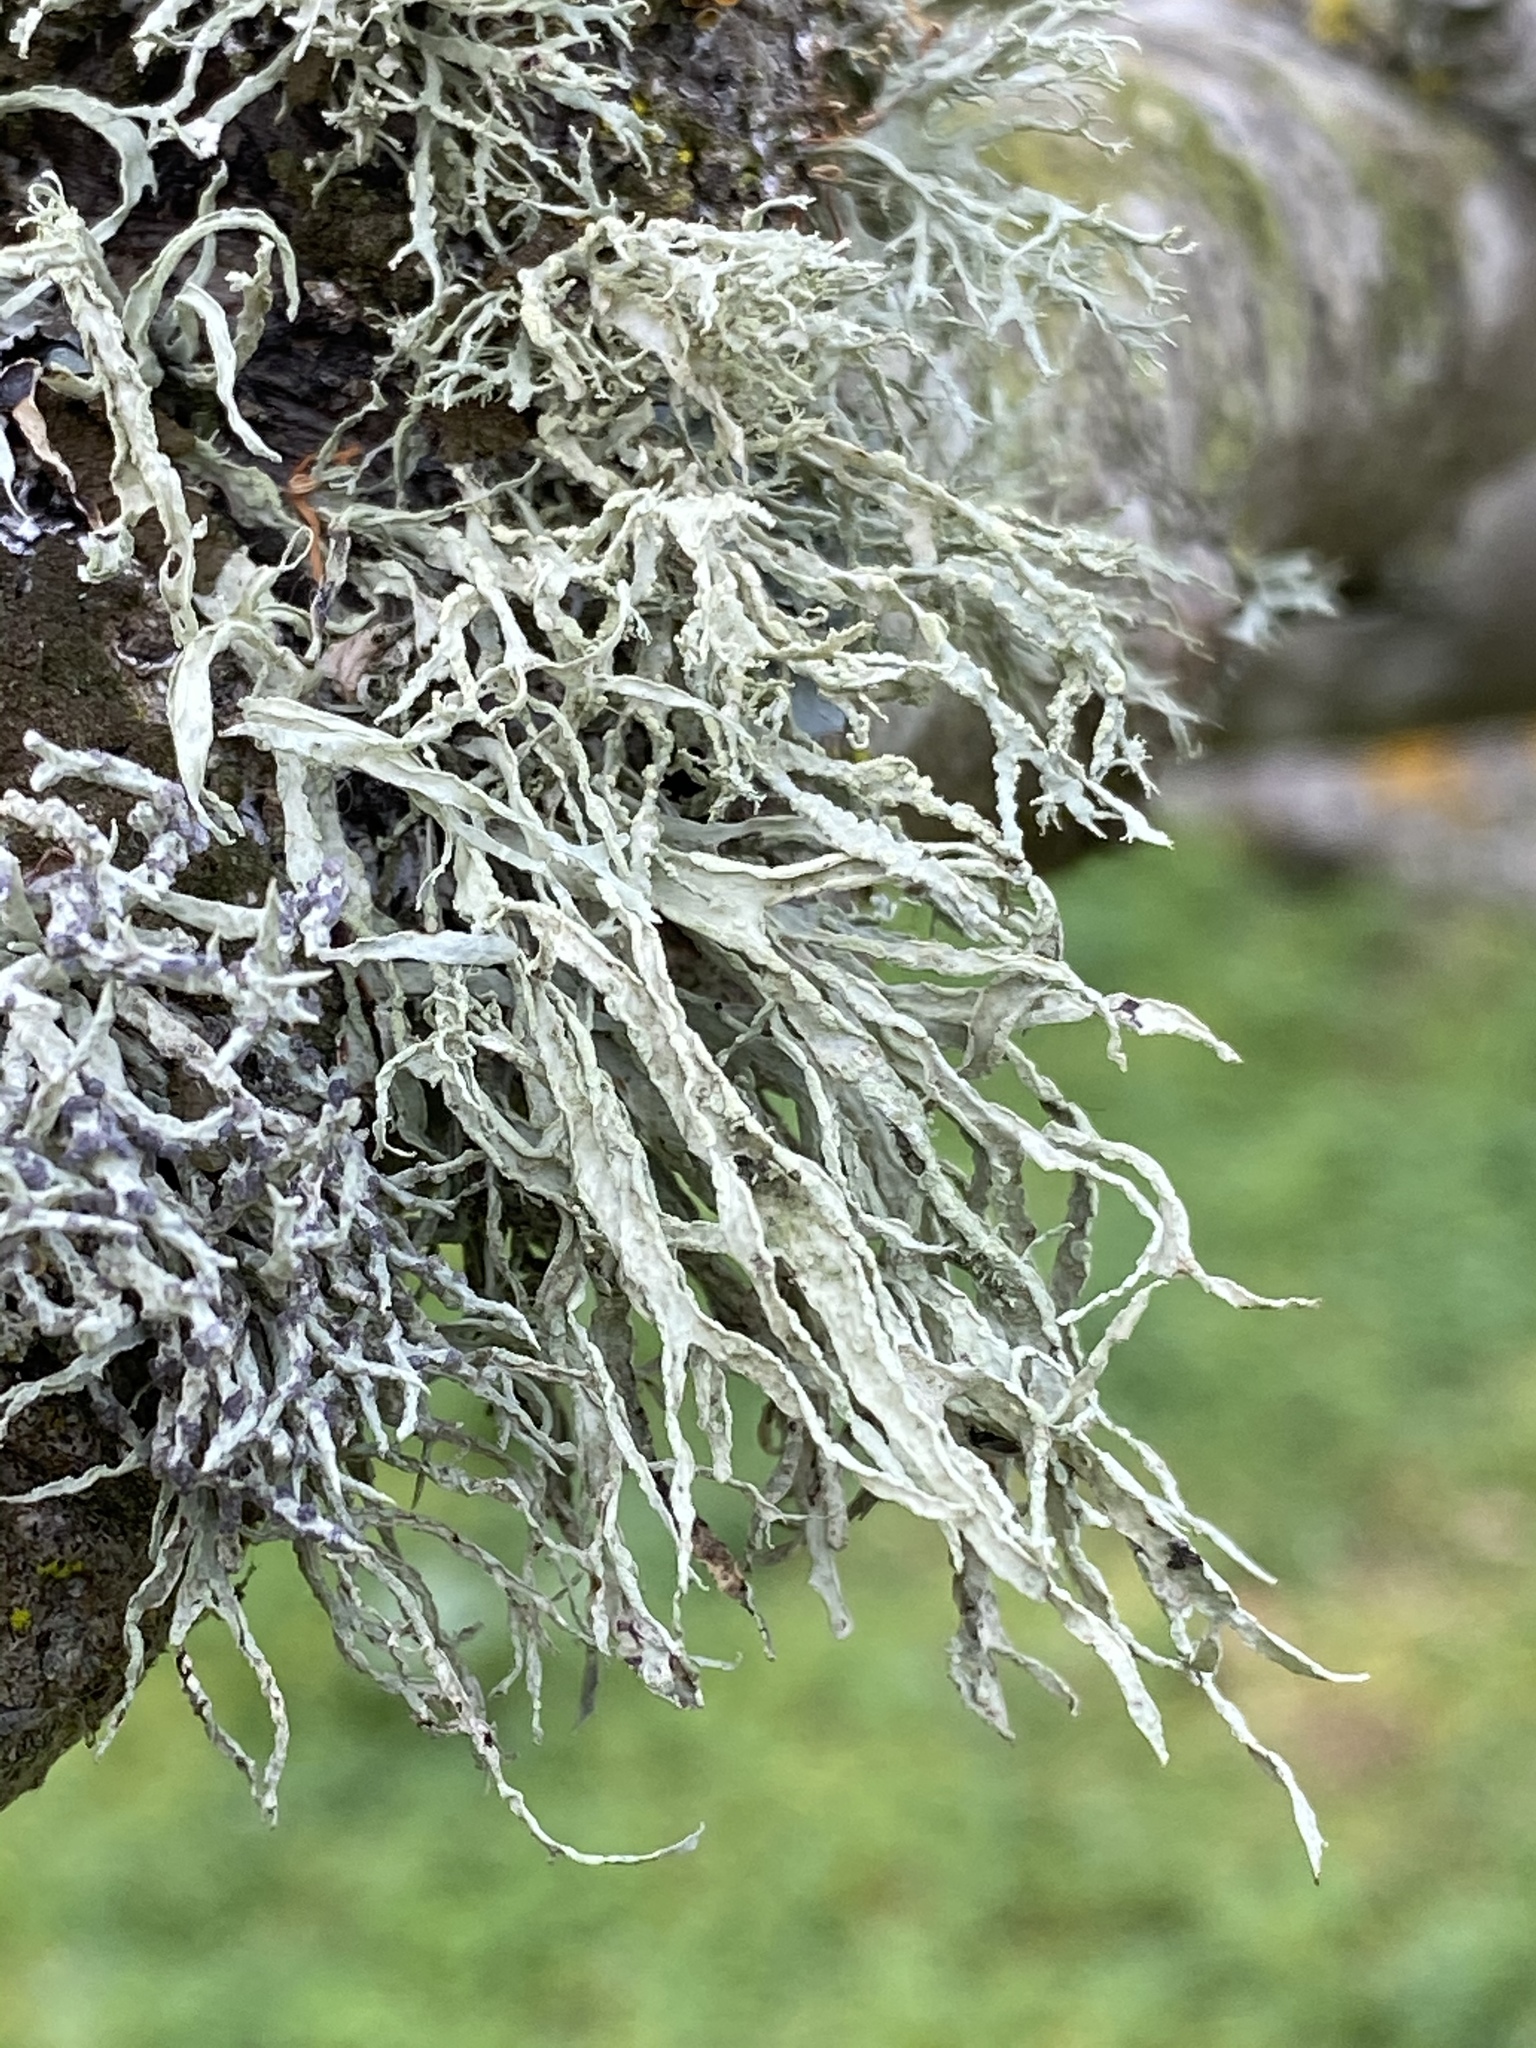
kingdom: Fungi
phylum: Ascomycota
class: Lecanoromycetes
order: Lecanorales
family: Ramalinaceae
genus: Ramalina
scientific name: Ramalina farinacea
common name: Farinose cartilage lichen
